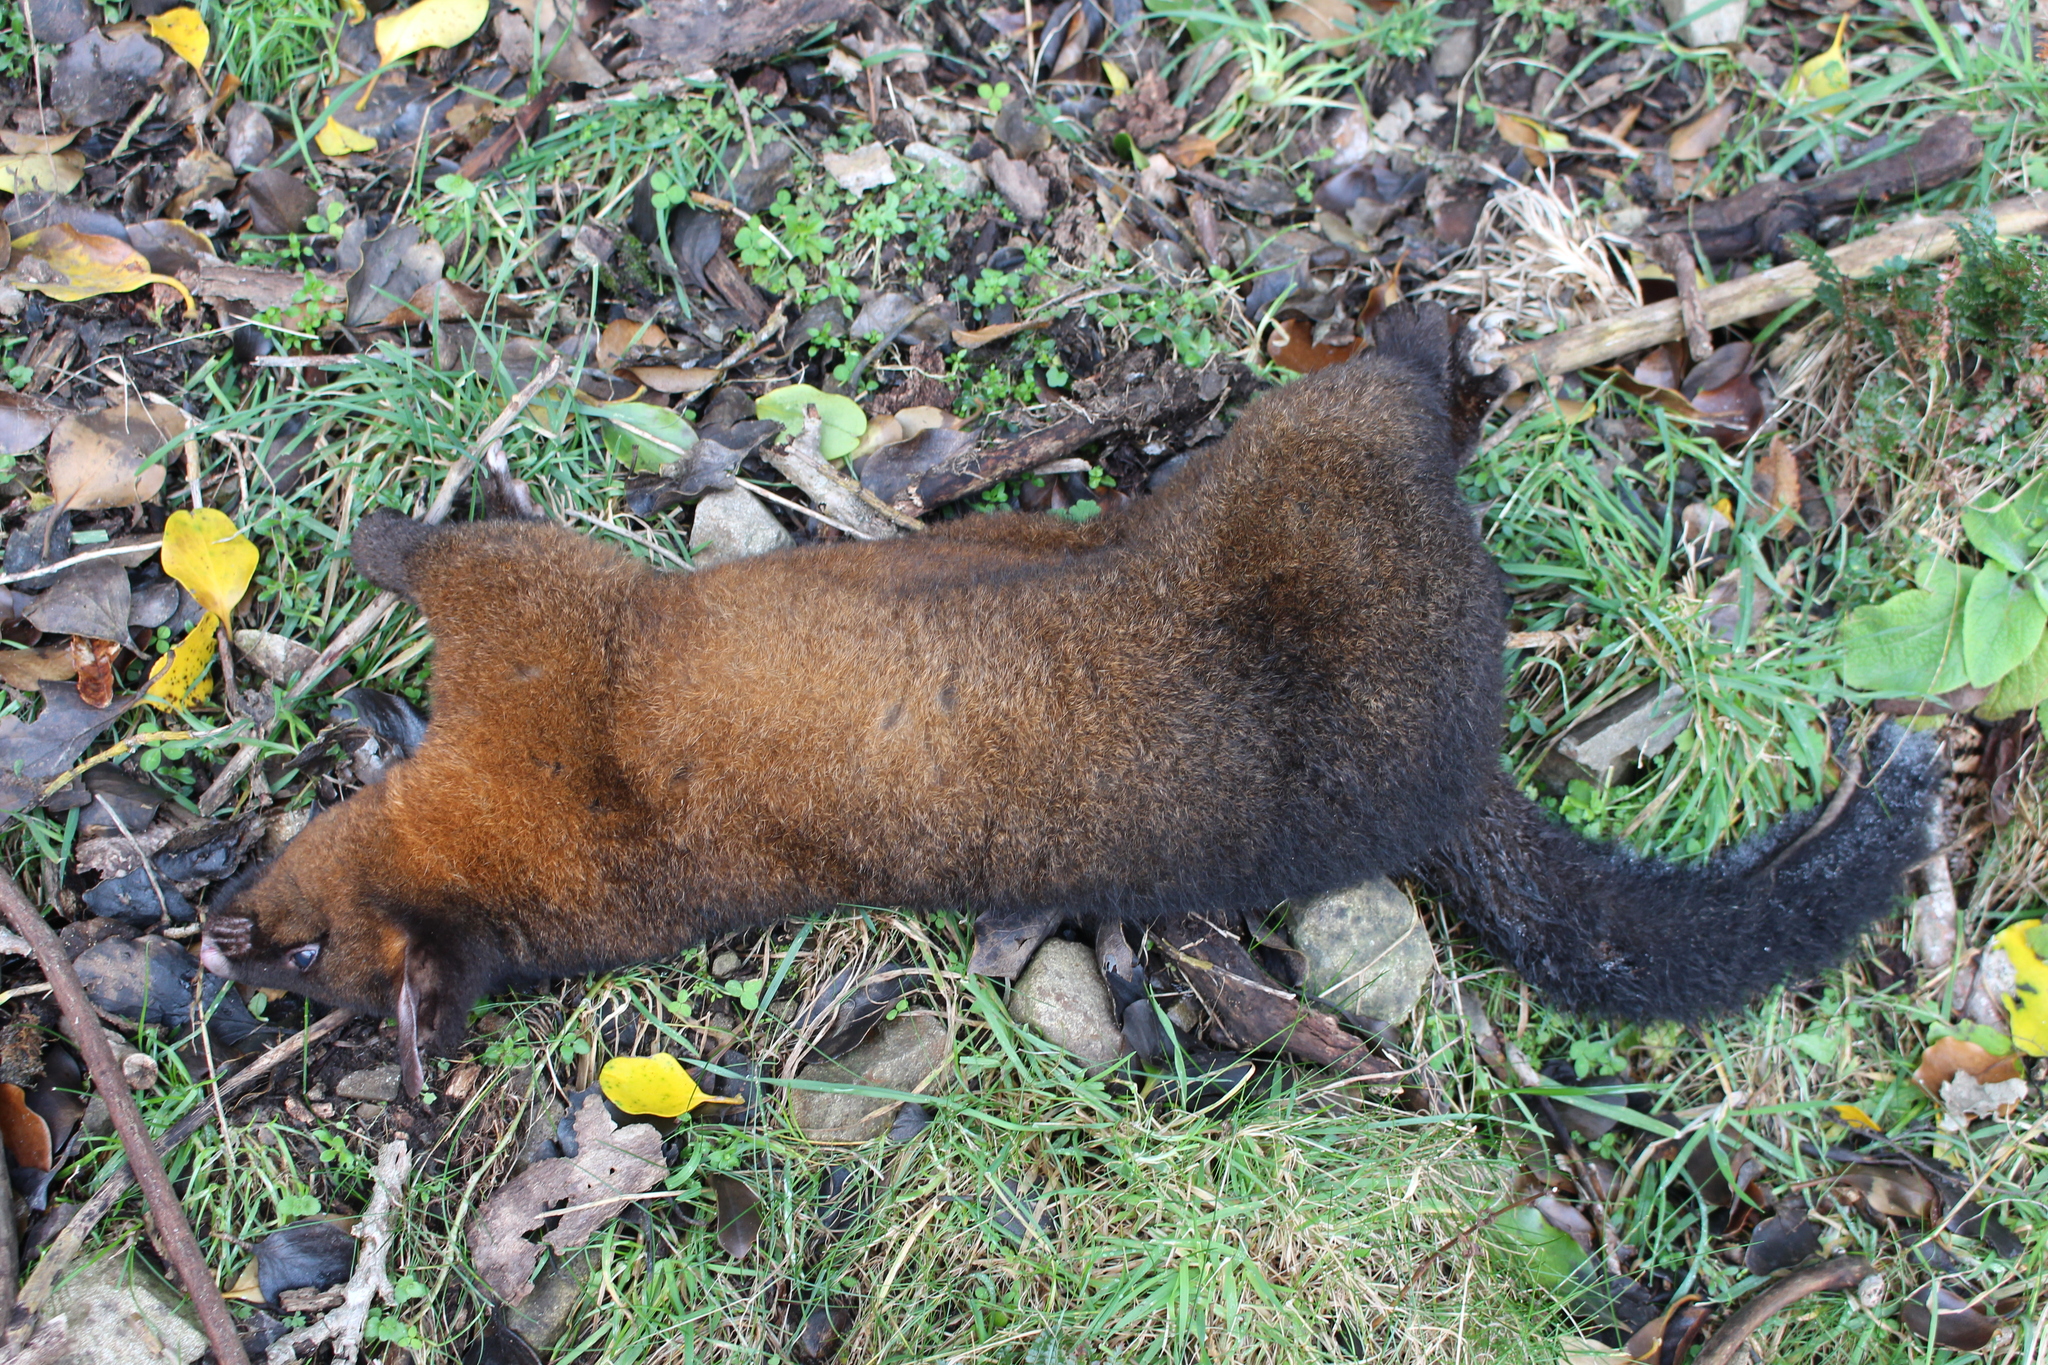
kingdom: Animalia
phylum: Chordata
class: Mammalia
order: Diprotodontia
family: Phalangeridae
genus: Trichosurus
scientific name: Trichosurus vulpecula
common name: Common brushtail
